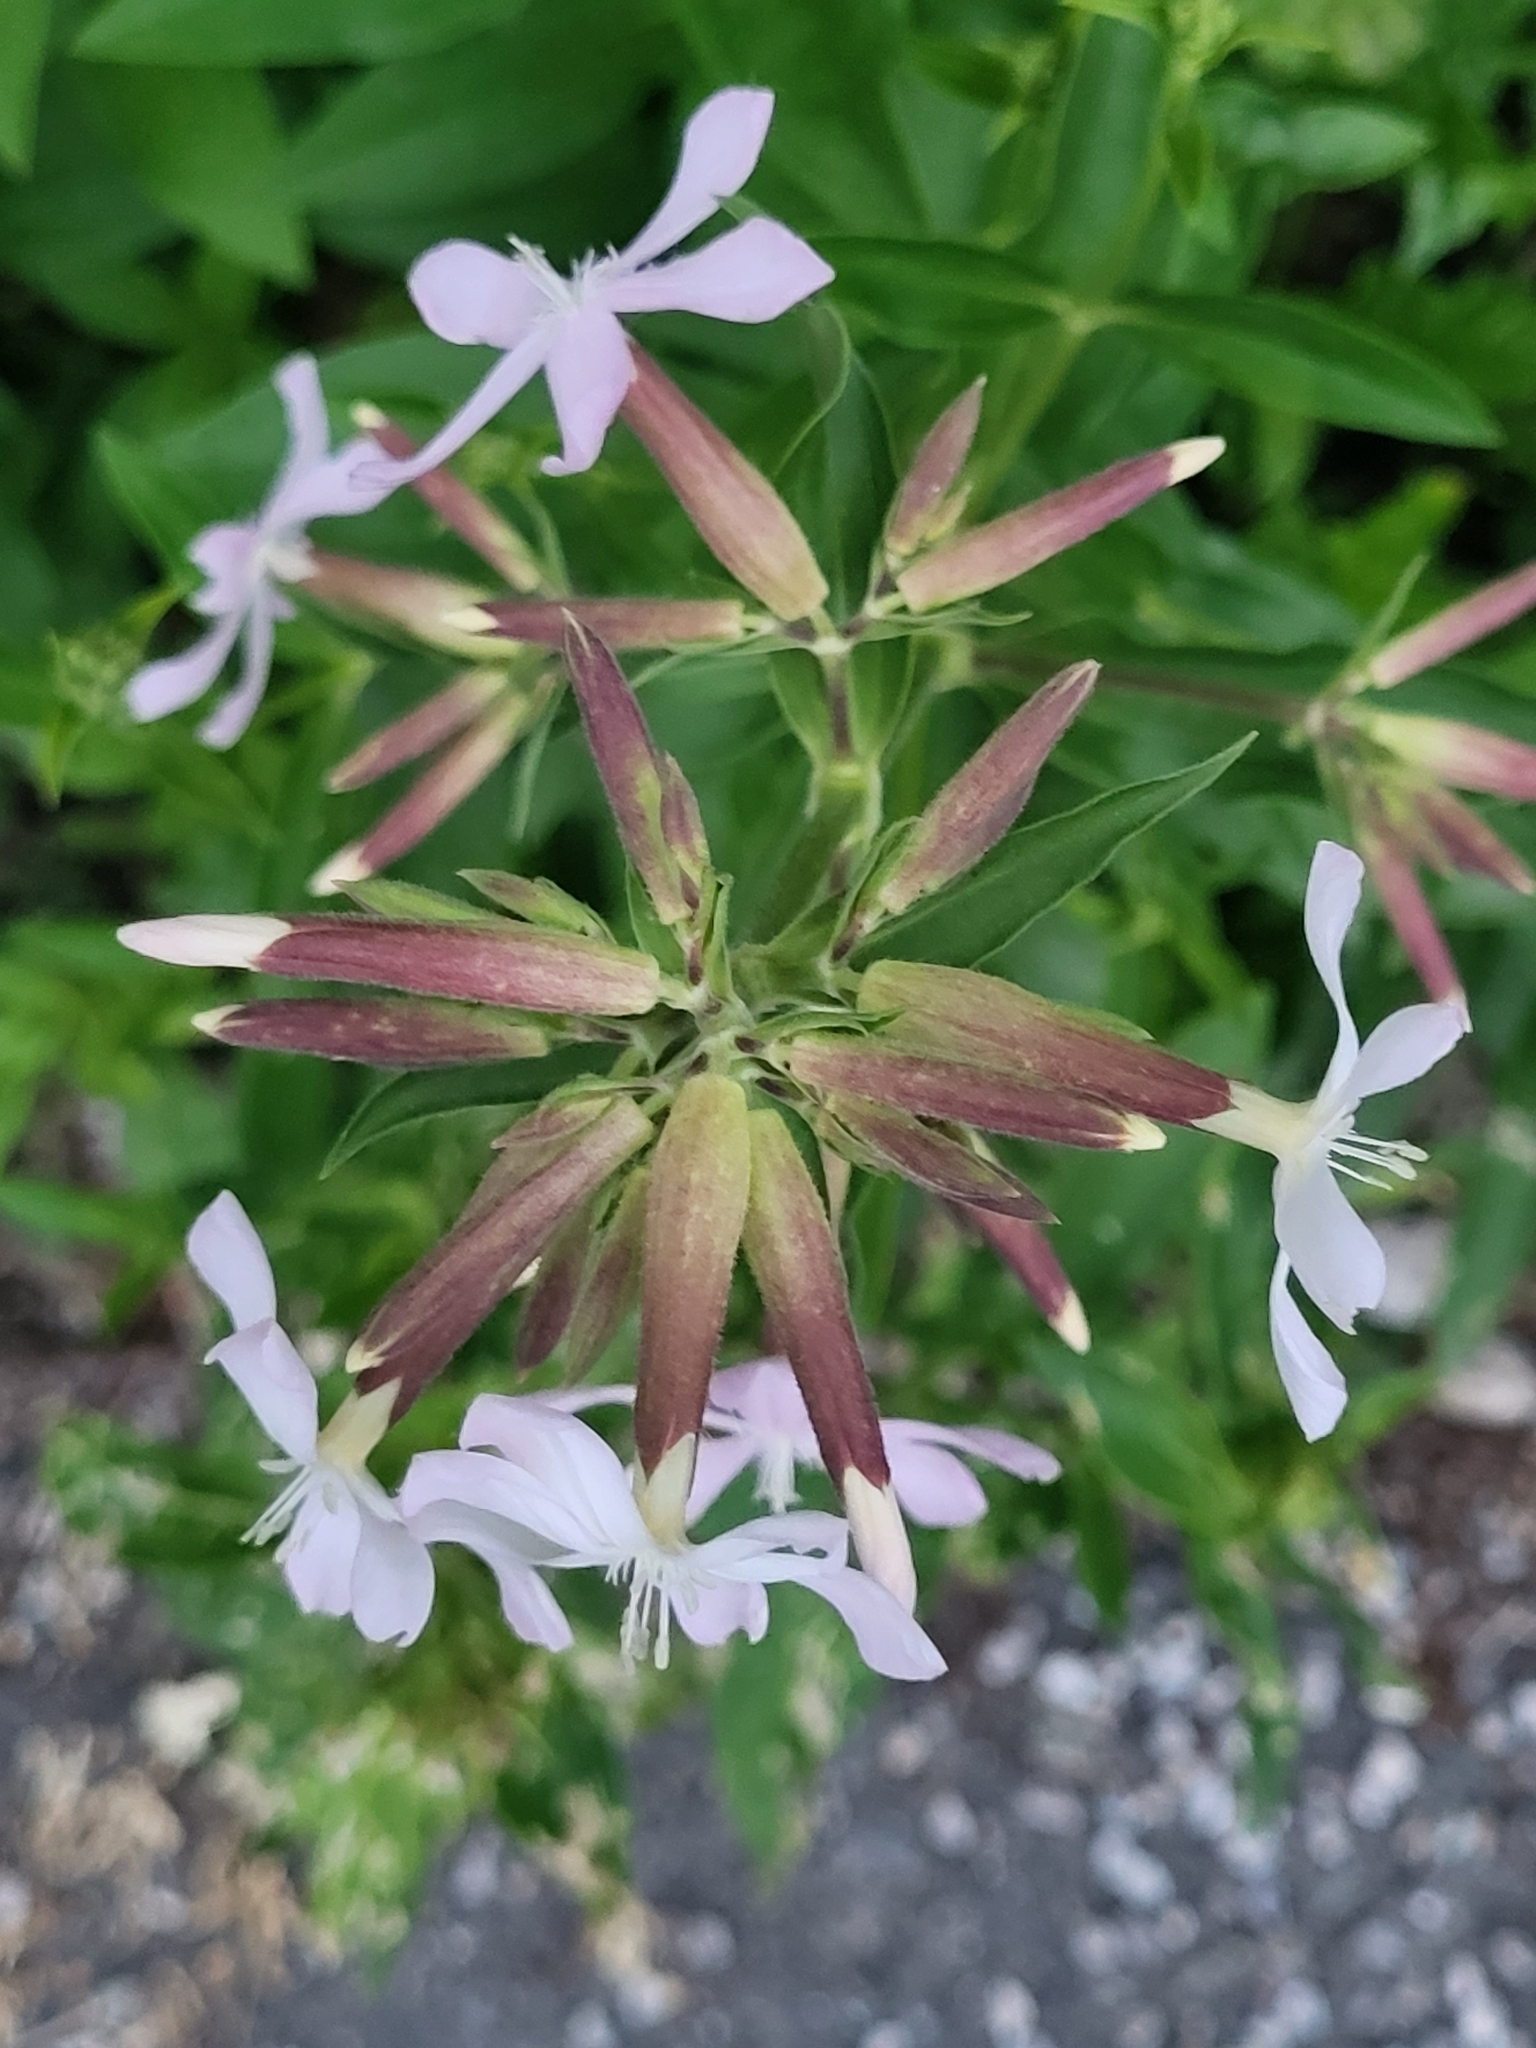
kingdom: Plantae
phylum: Tracheophyta
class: Magnoliopsida
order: Caryophyllales
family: Caryophyllaceae
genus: Saponaria
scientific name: Saponaria officinalis
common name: Soapwort
